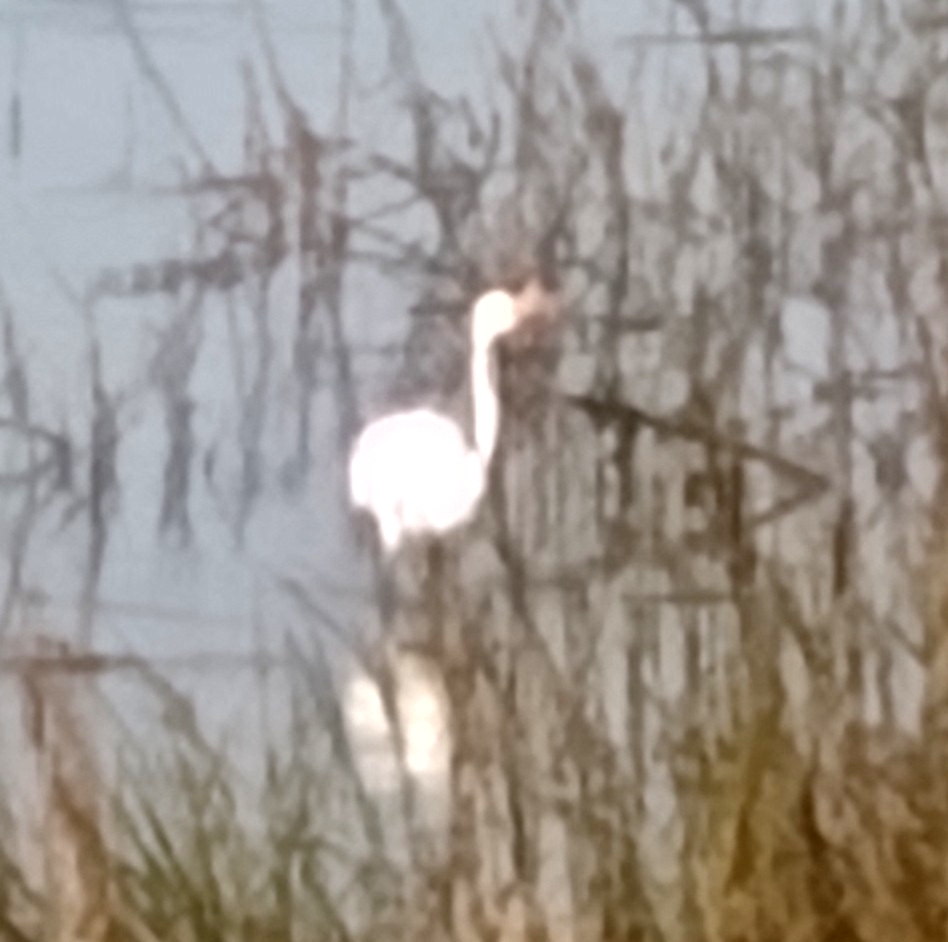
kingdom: Animalia
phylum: Chordata
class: Aves
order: Pelecaniformes
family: Ardeidae
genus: Ardea
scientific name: Ardea alba
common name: Great egret
